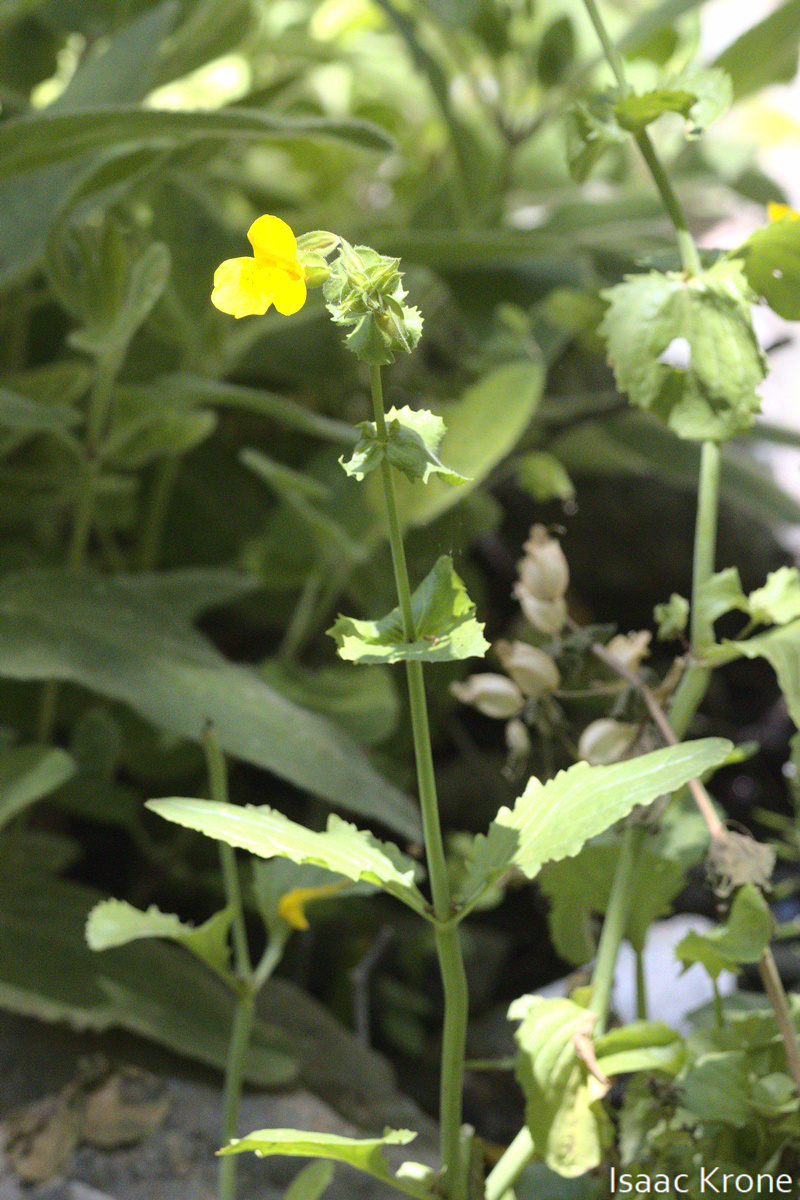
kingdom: Plantae
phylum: Tracheophyta
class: Magnoliopsida
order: Lamiales
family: Phrymaceae
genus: Erythranthe
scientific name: Erythranthe guttata
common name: Monkeyflower
